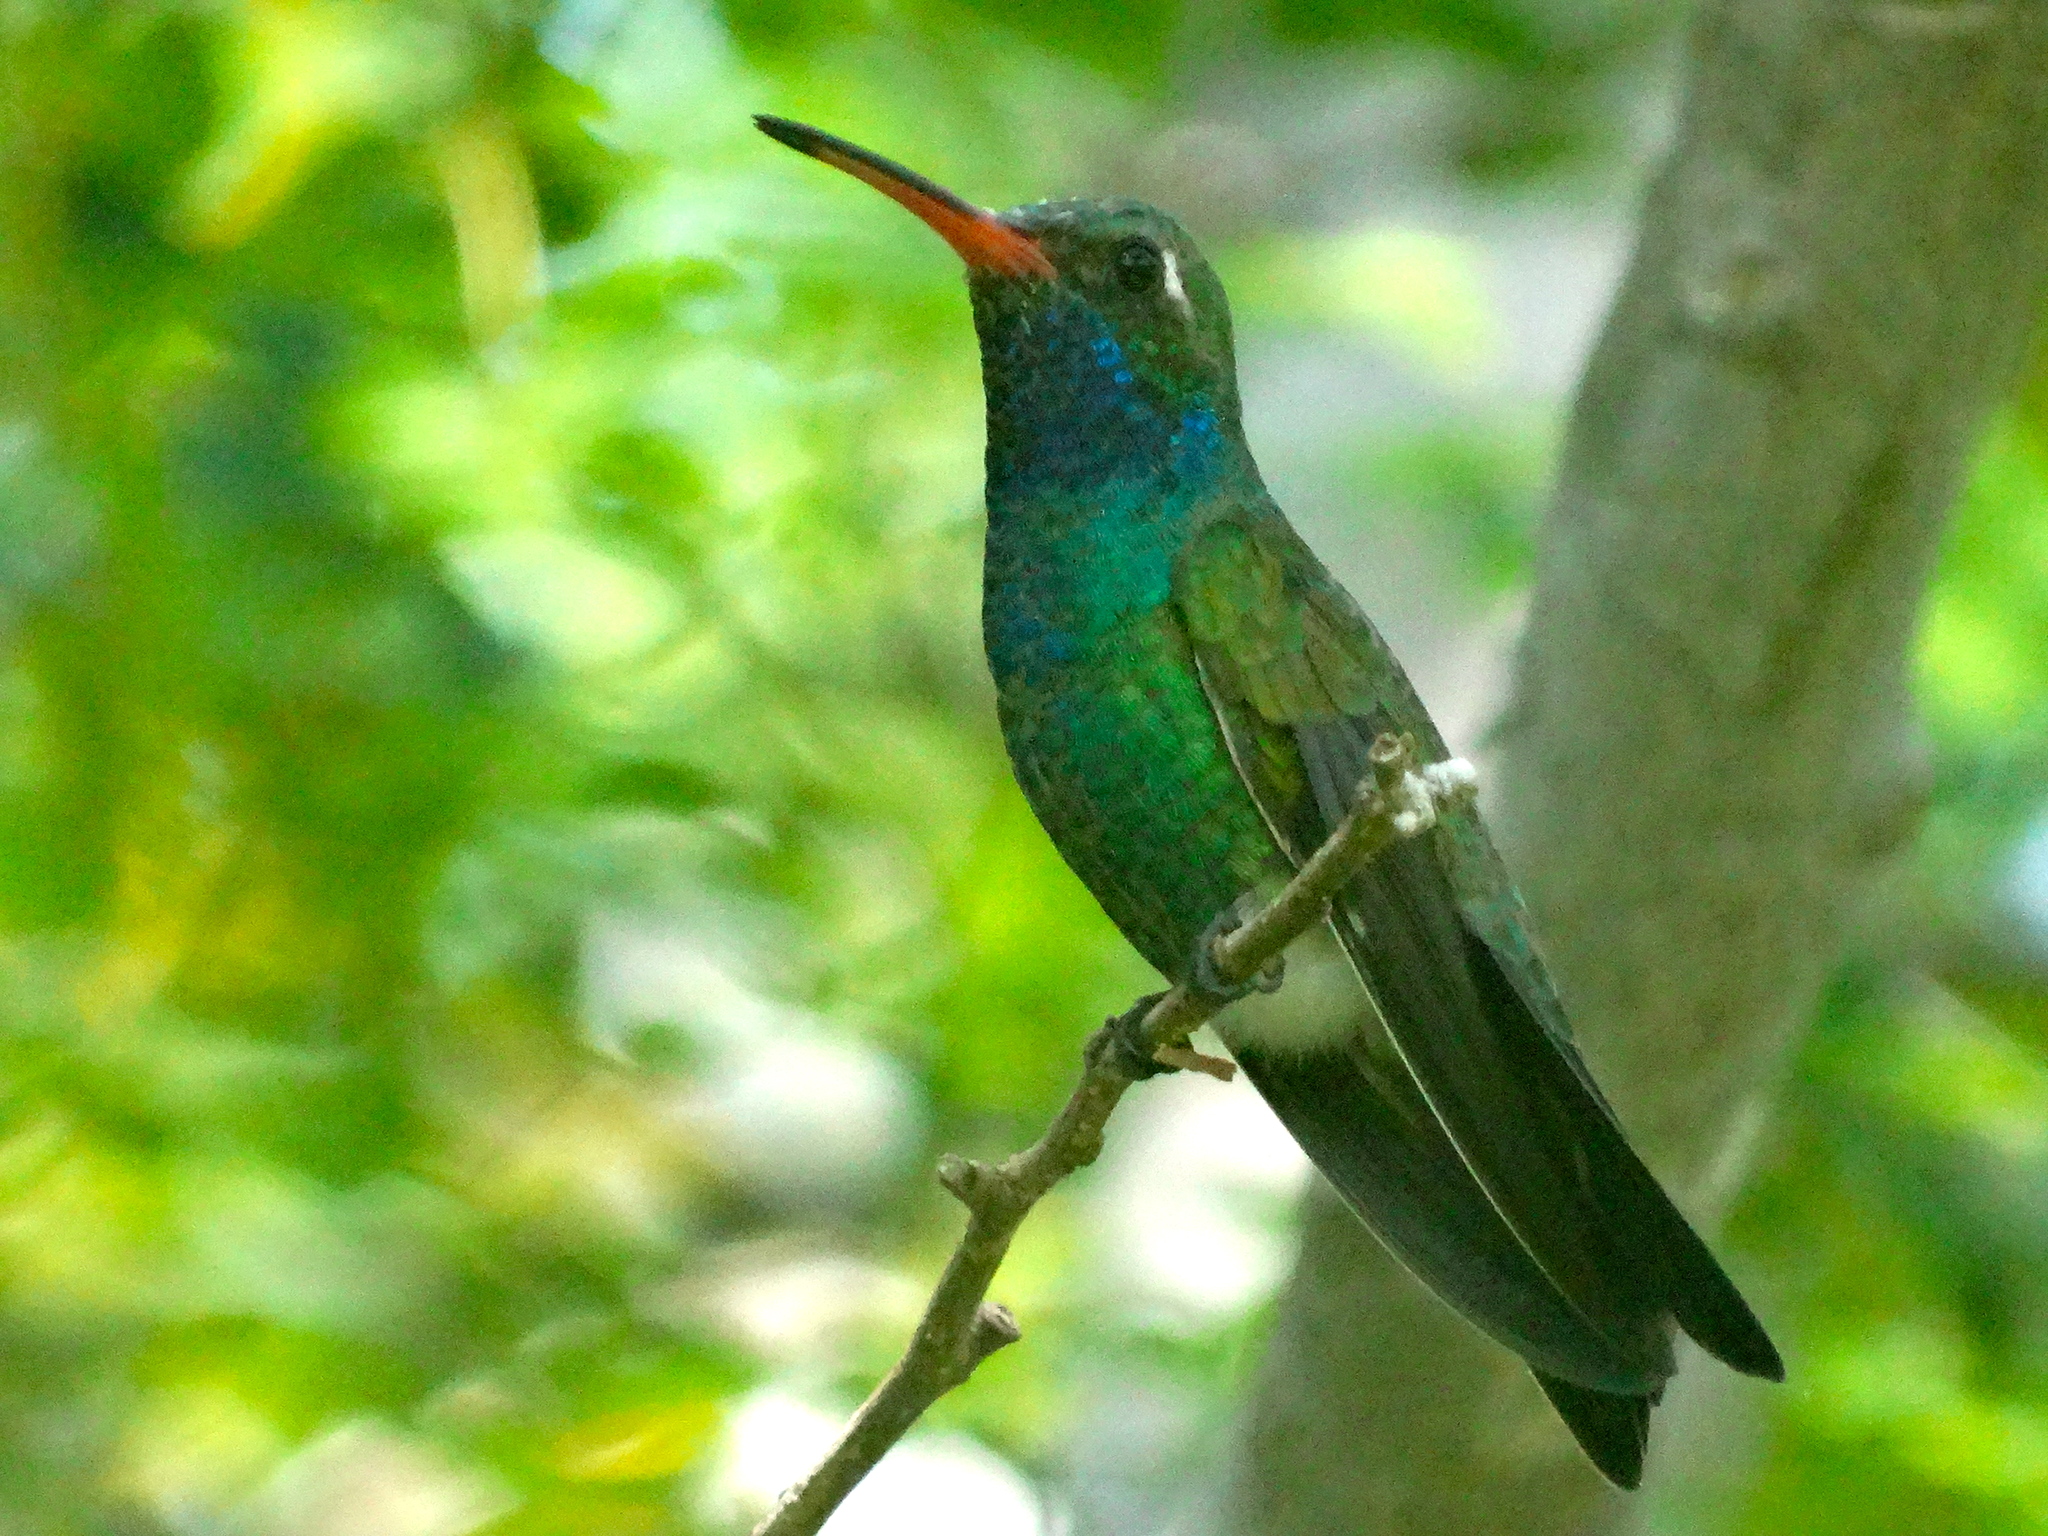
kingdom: Animalia
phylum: Chordata
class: Aves
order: Apodiformes
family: Trochilidae
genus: Cynanthus
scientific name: Cynanthus latirostris
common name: Broad-billed hummingbird
